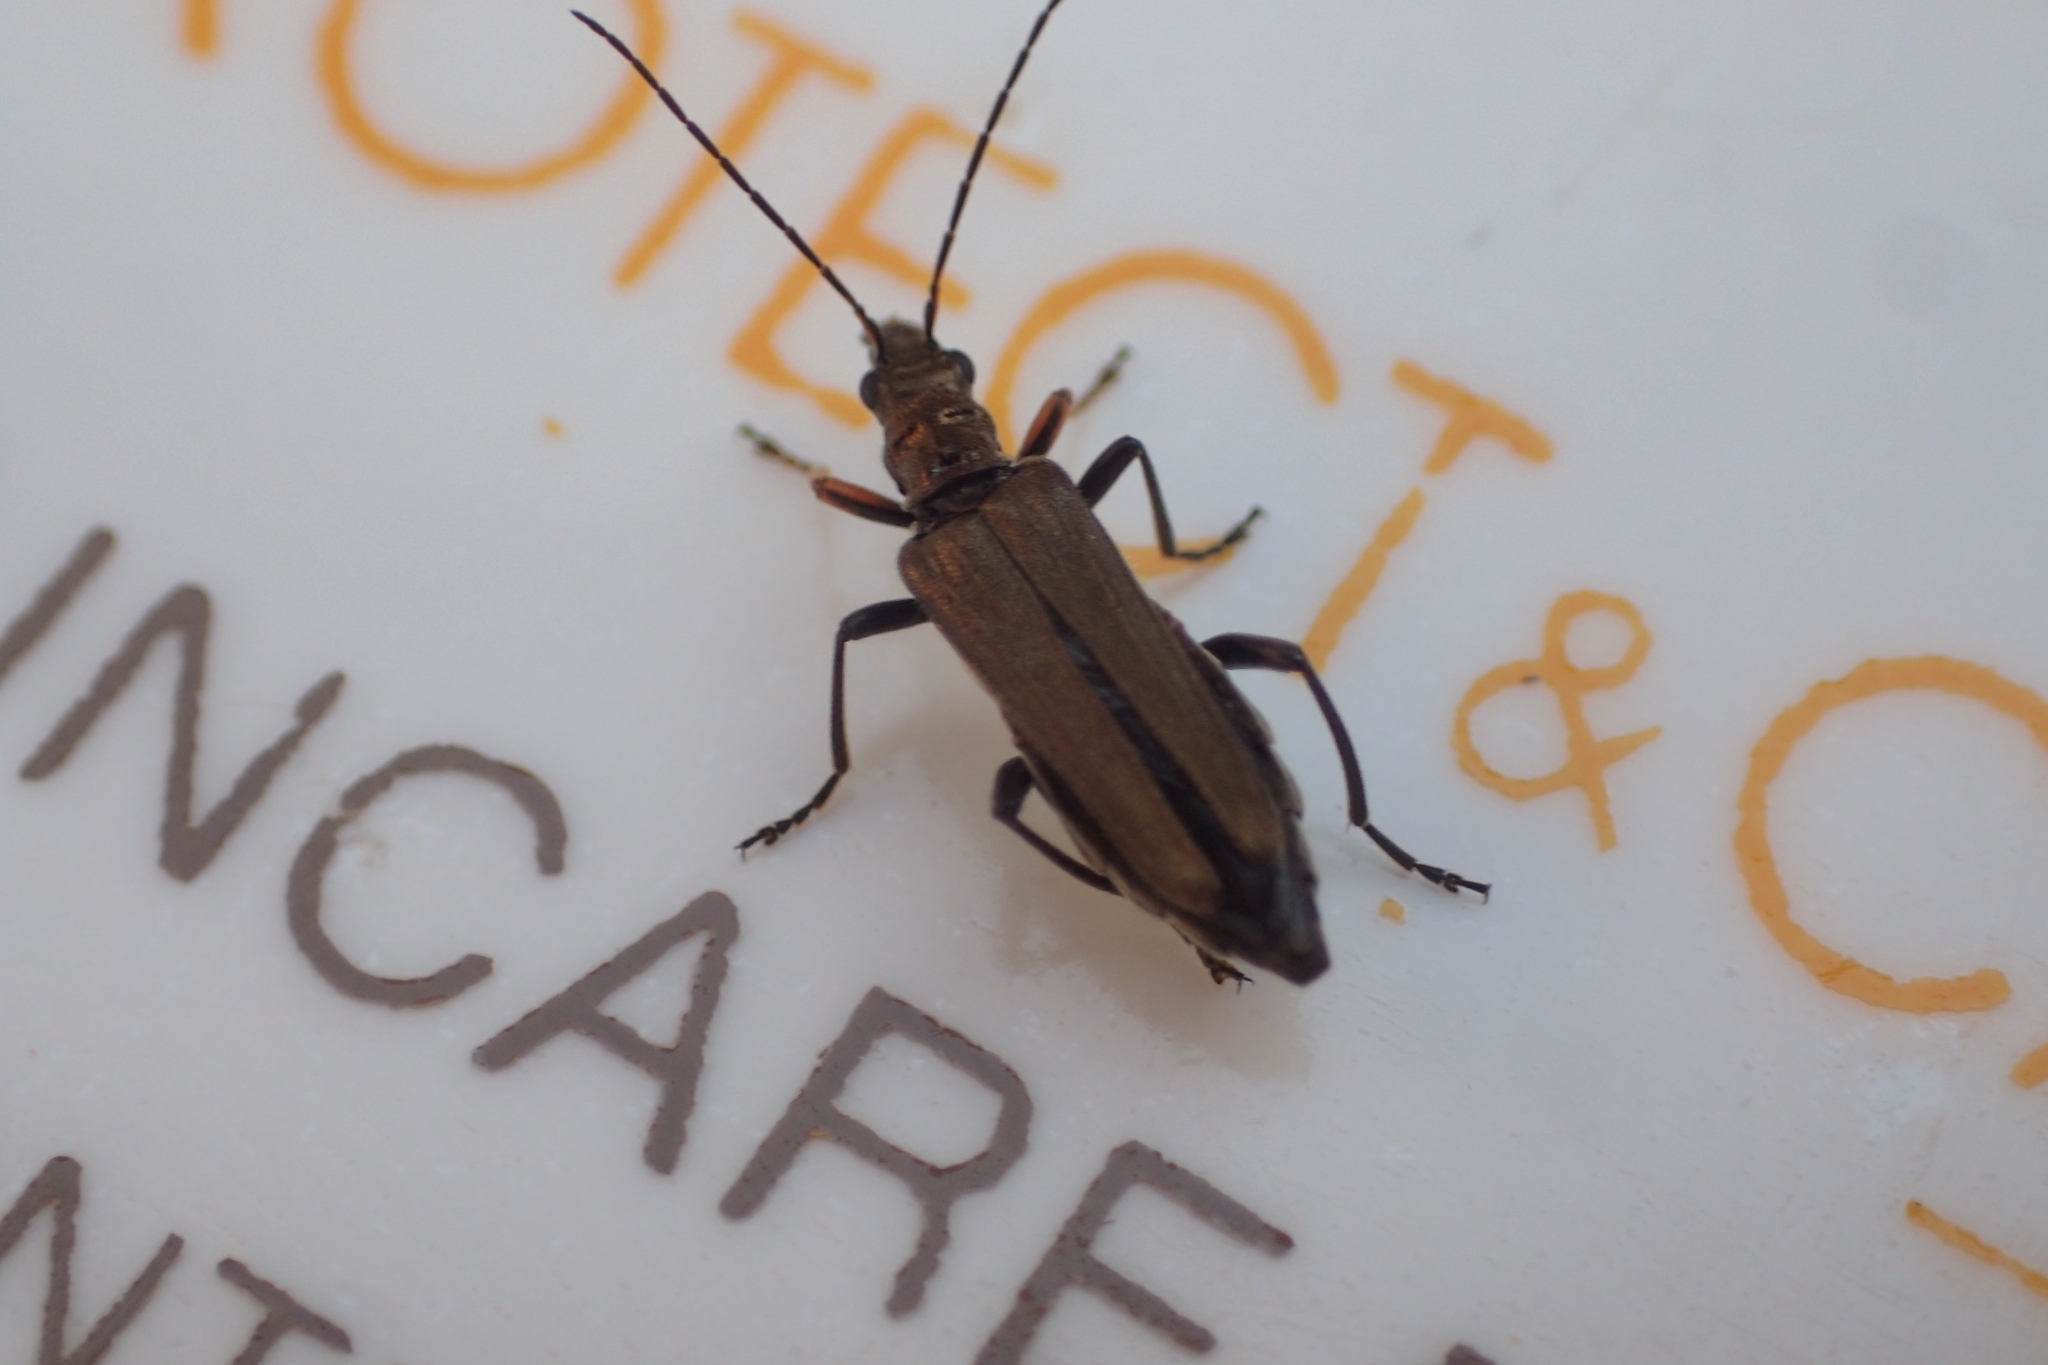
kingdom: Animalia
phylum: Arthropoda
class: Insecta
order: Coleoptera
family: Oedemeridae
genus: Oedemera
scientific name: Oedemera flavipes
